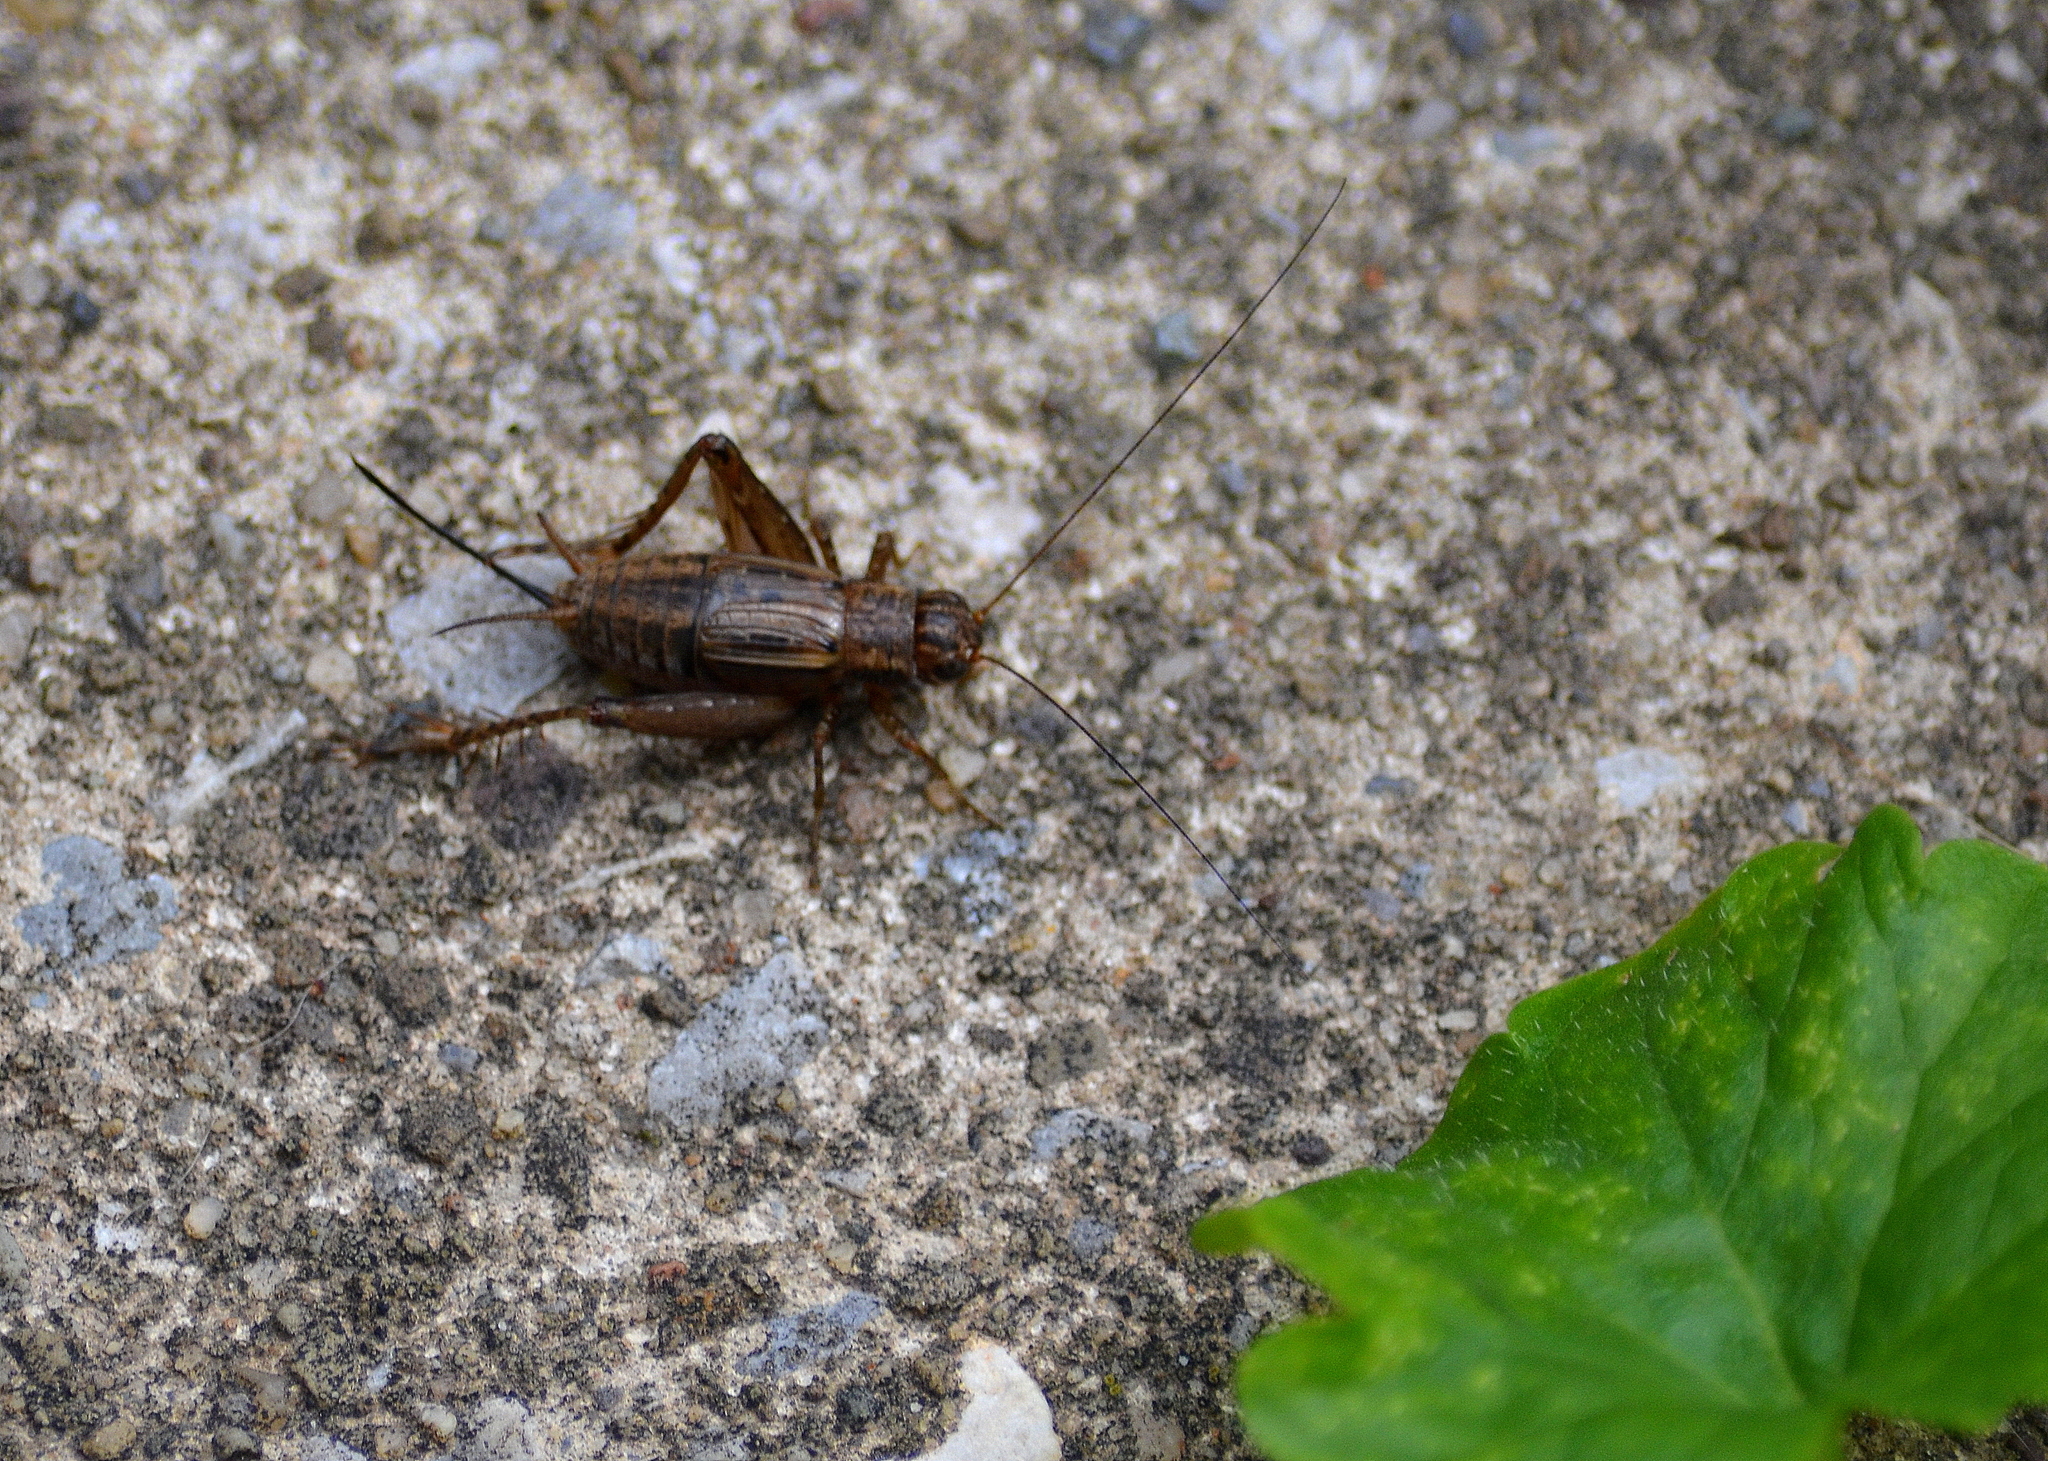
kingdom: Animalia
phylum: Arthropoda
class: Insecta
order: Orthoptera
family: Trigonidiidae
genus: Allonemobius
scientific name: Allonemobius fasciatus
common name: Striped ground cricket
